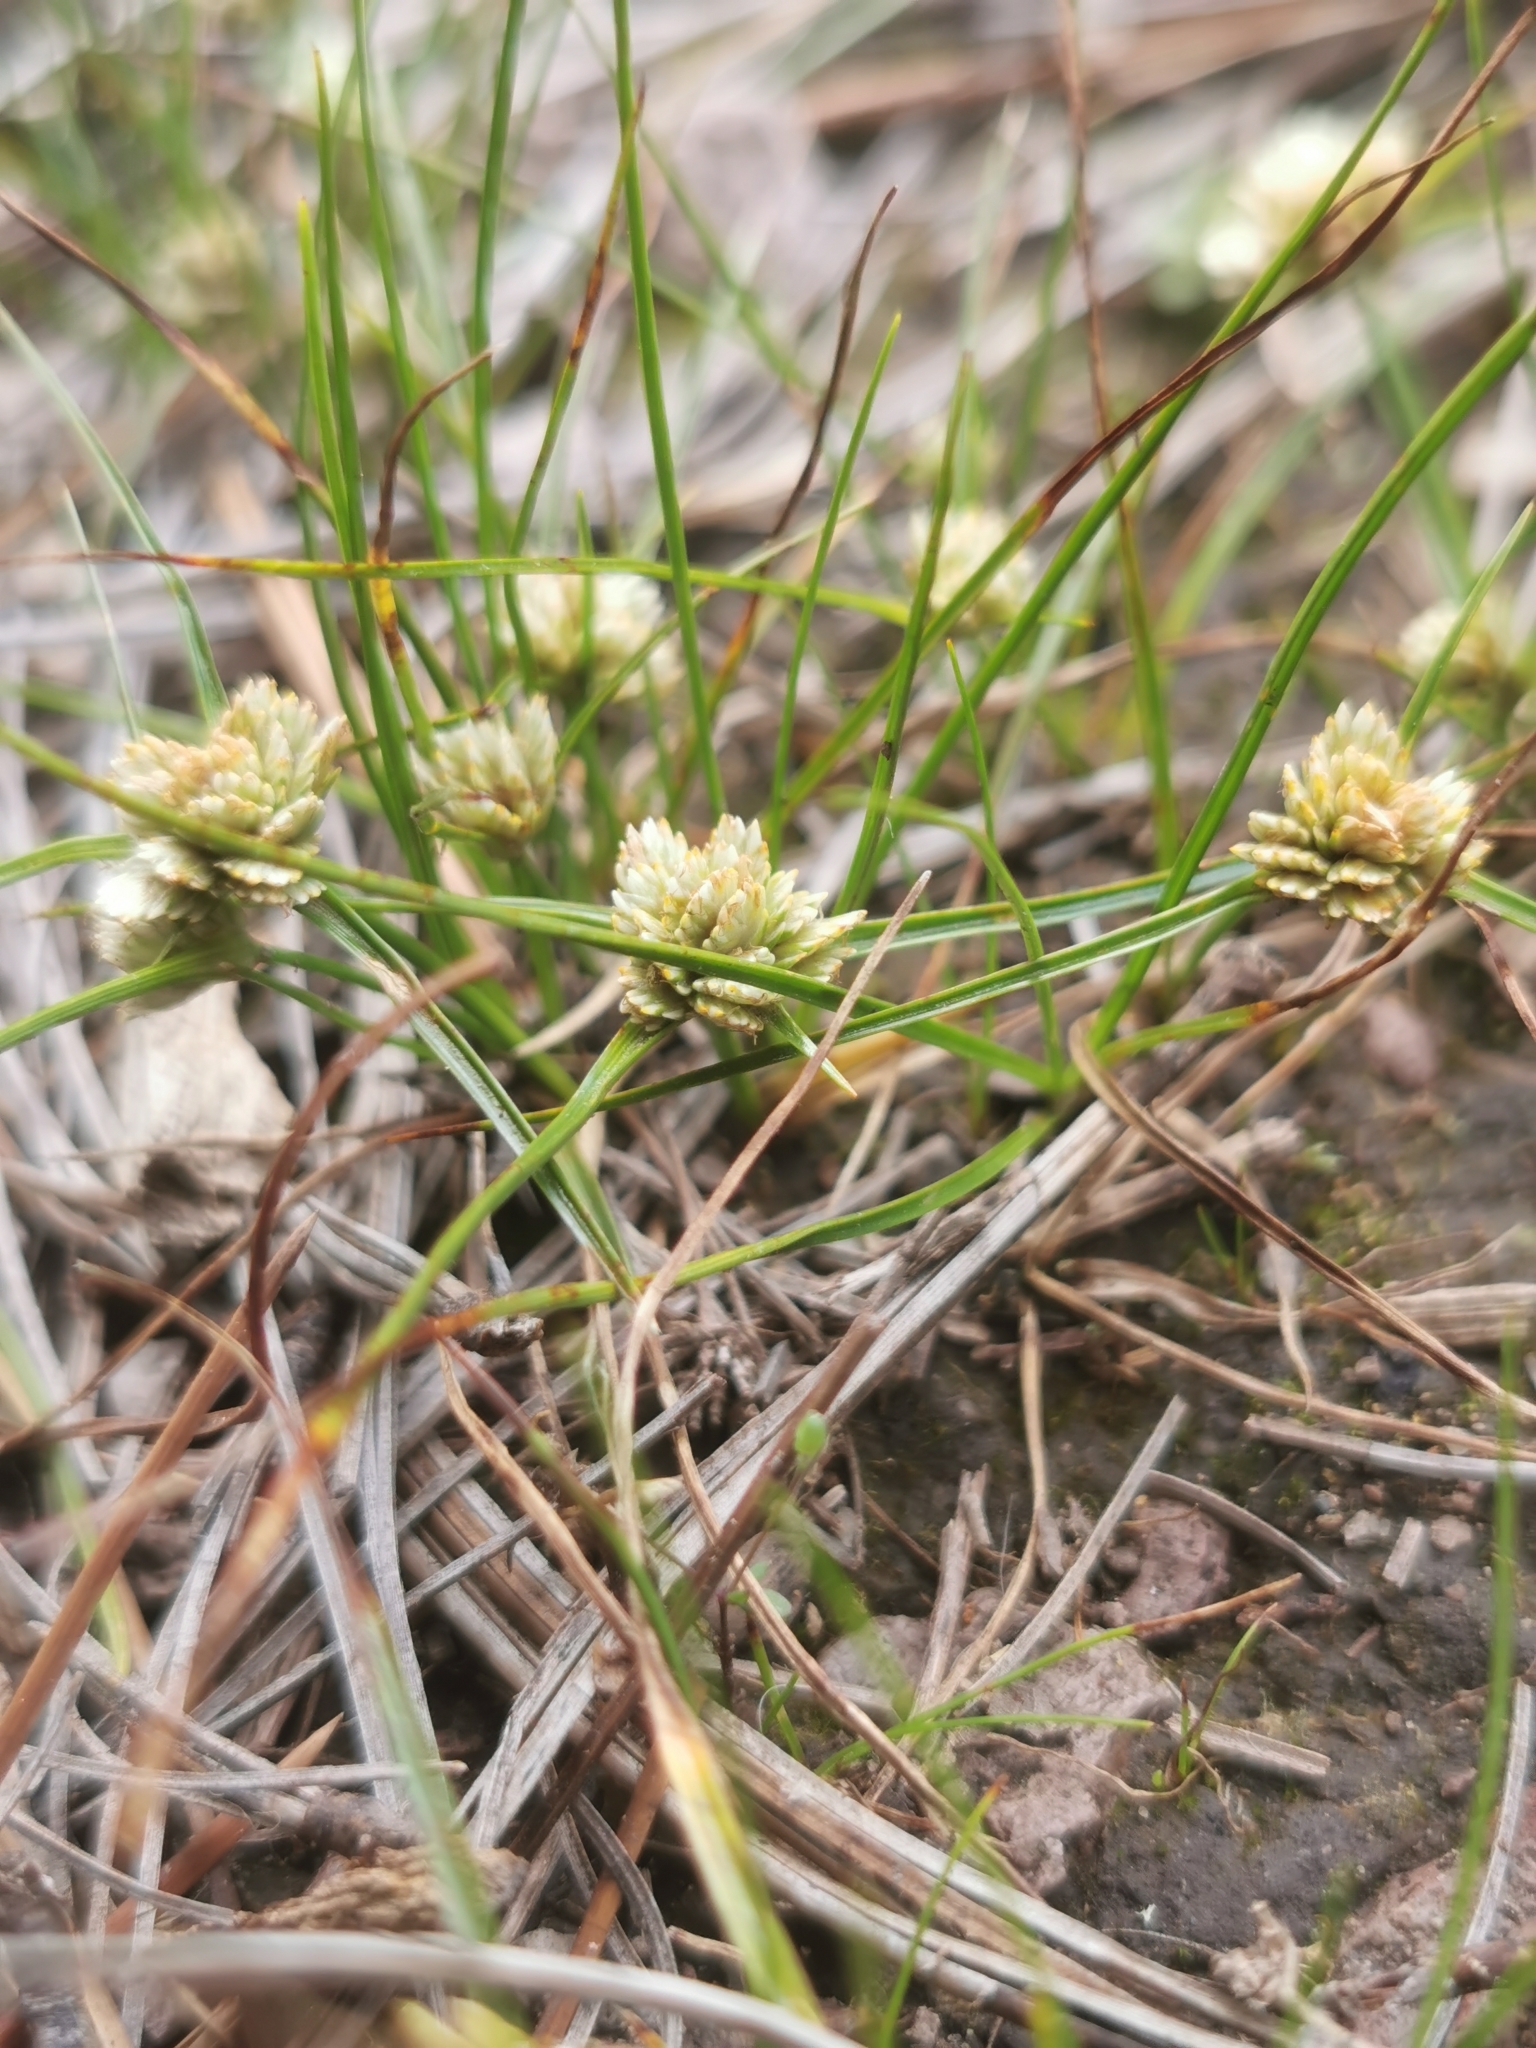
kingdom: Plantae
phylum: Tracheophyta
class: Liliopsida
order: Poales
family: Cyperaceae
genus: Cyperus
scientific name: Cyperus seslerioides
